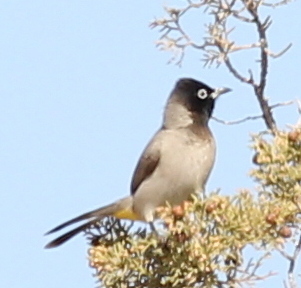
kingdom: Animalia
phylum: Chordata
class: Aves
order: Passeriformes
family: Pycnonotidae
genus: Pycnonotus
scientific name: Pycnonotus xanthopygos
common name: White-spectacled bulbul
